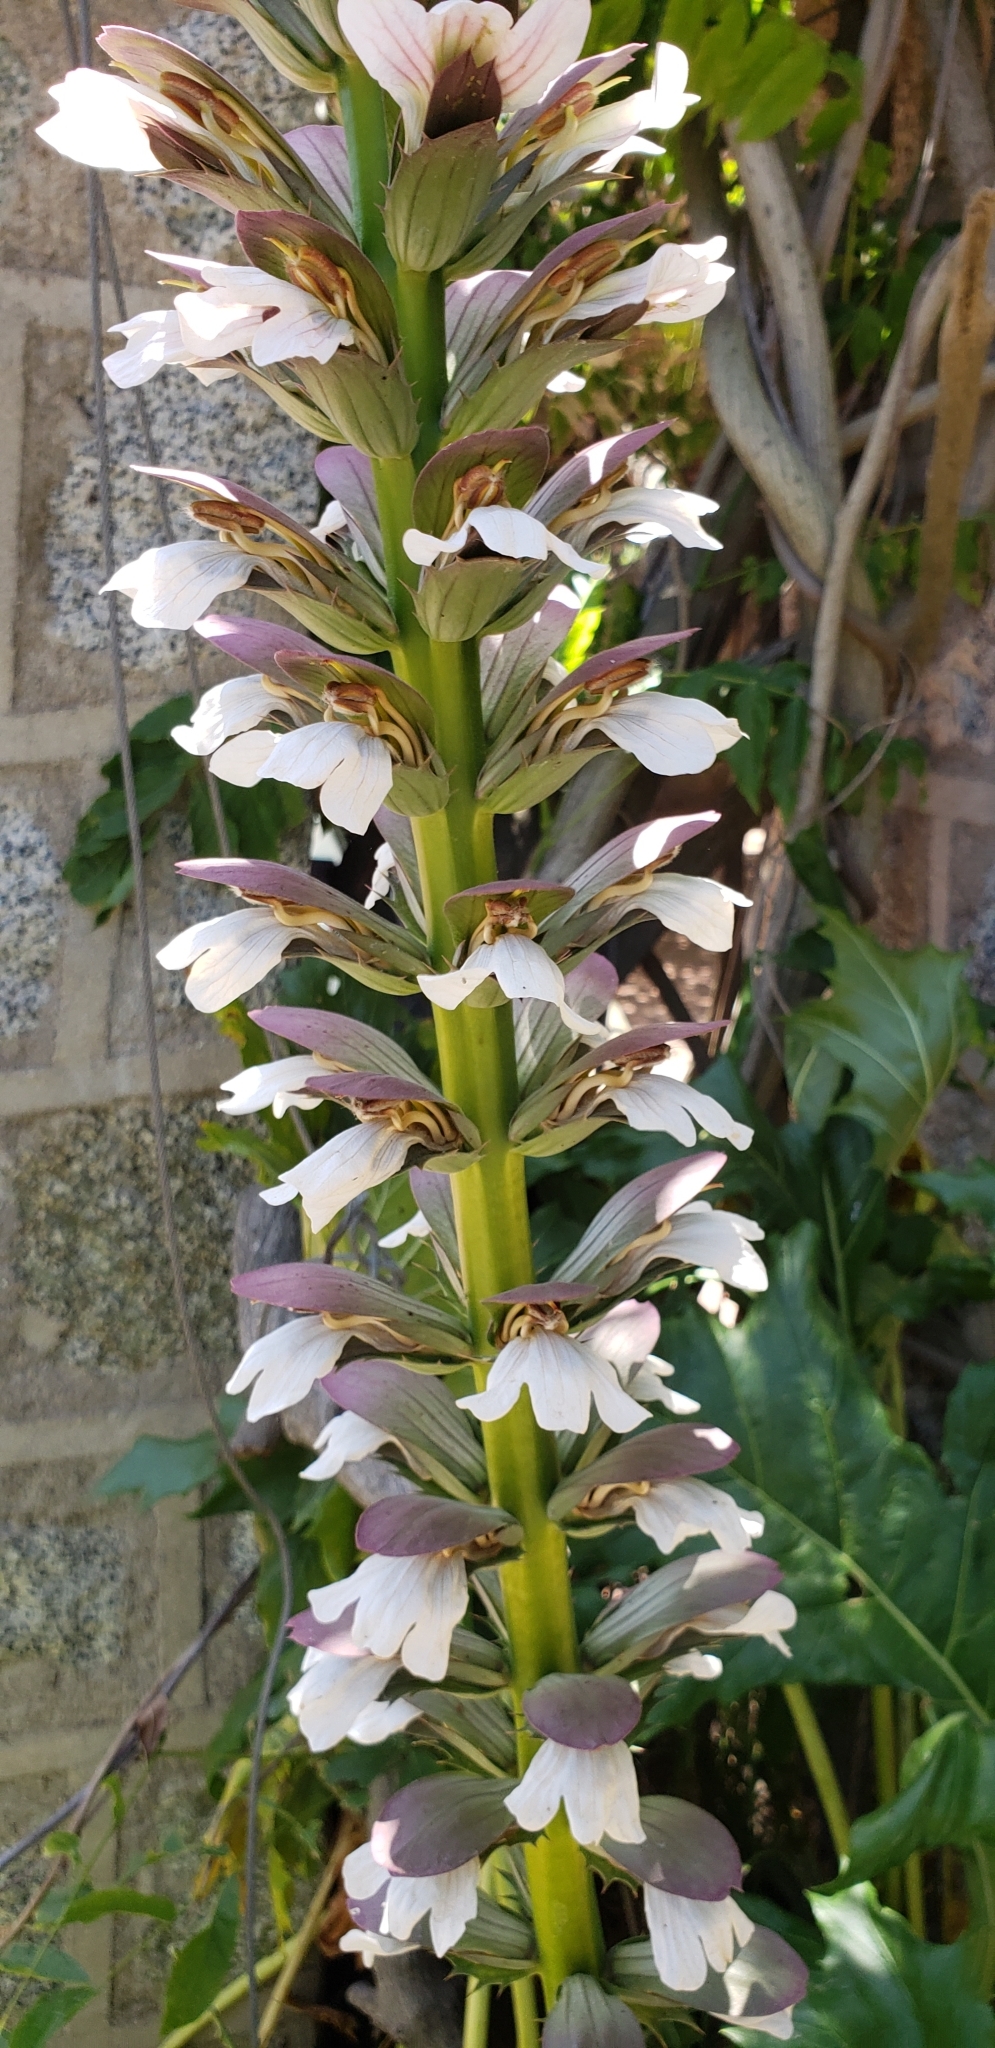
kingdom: Plantae
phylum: Tracheophyta
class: Magnoliopsida
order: Lamiales
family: Acanthaceae
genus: Acanthus
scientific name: Acanthus mollis
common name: Bear's-breech
